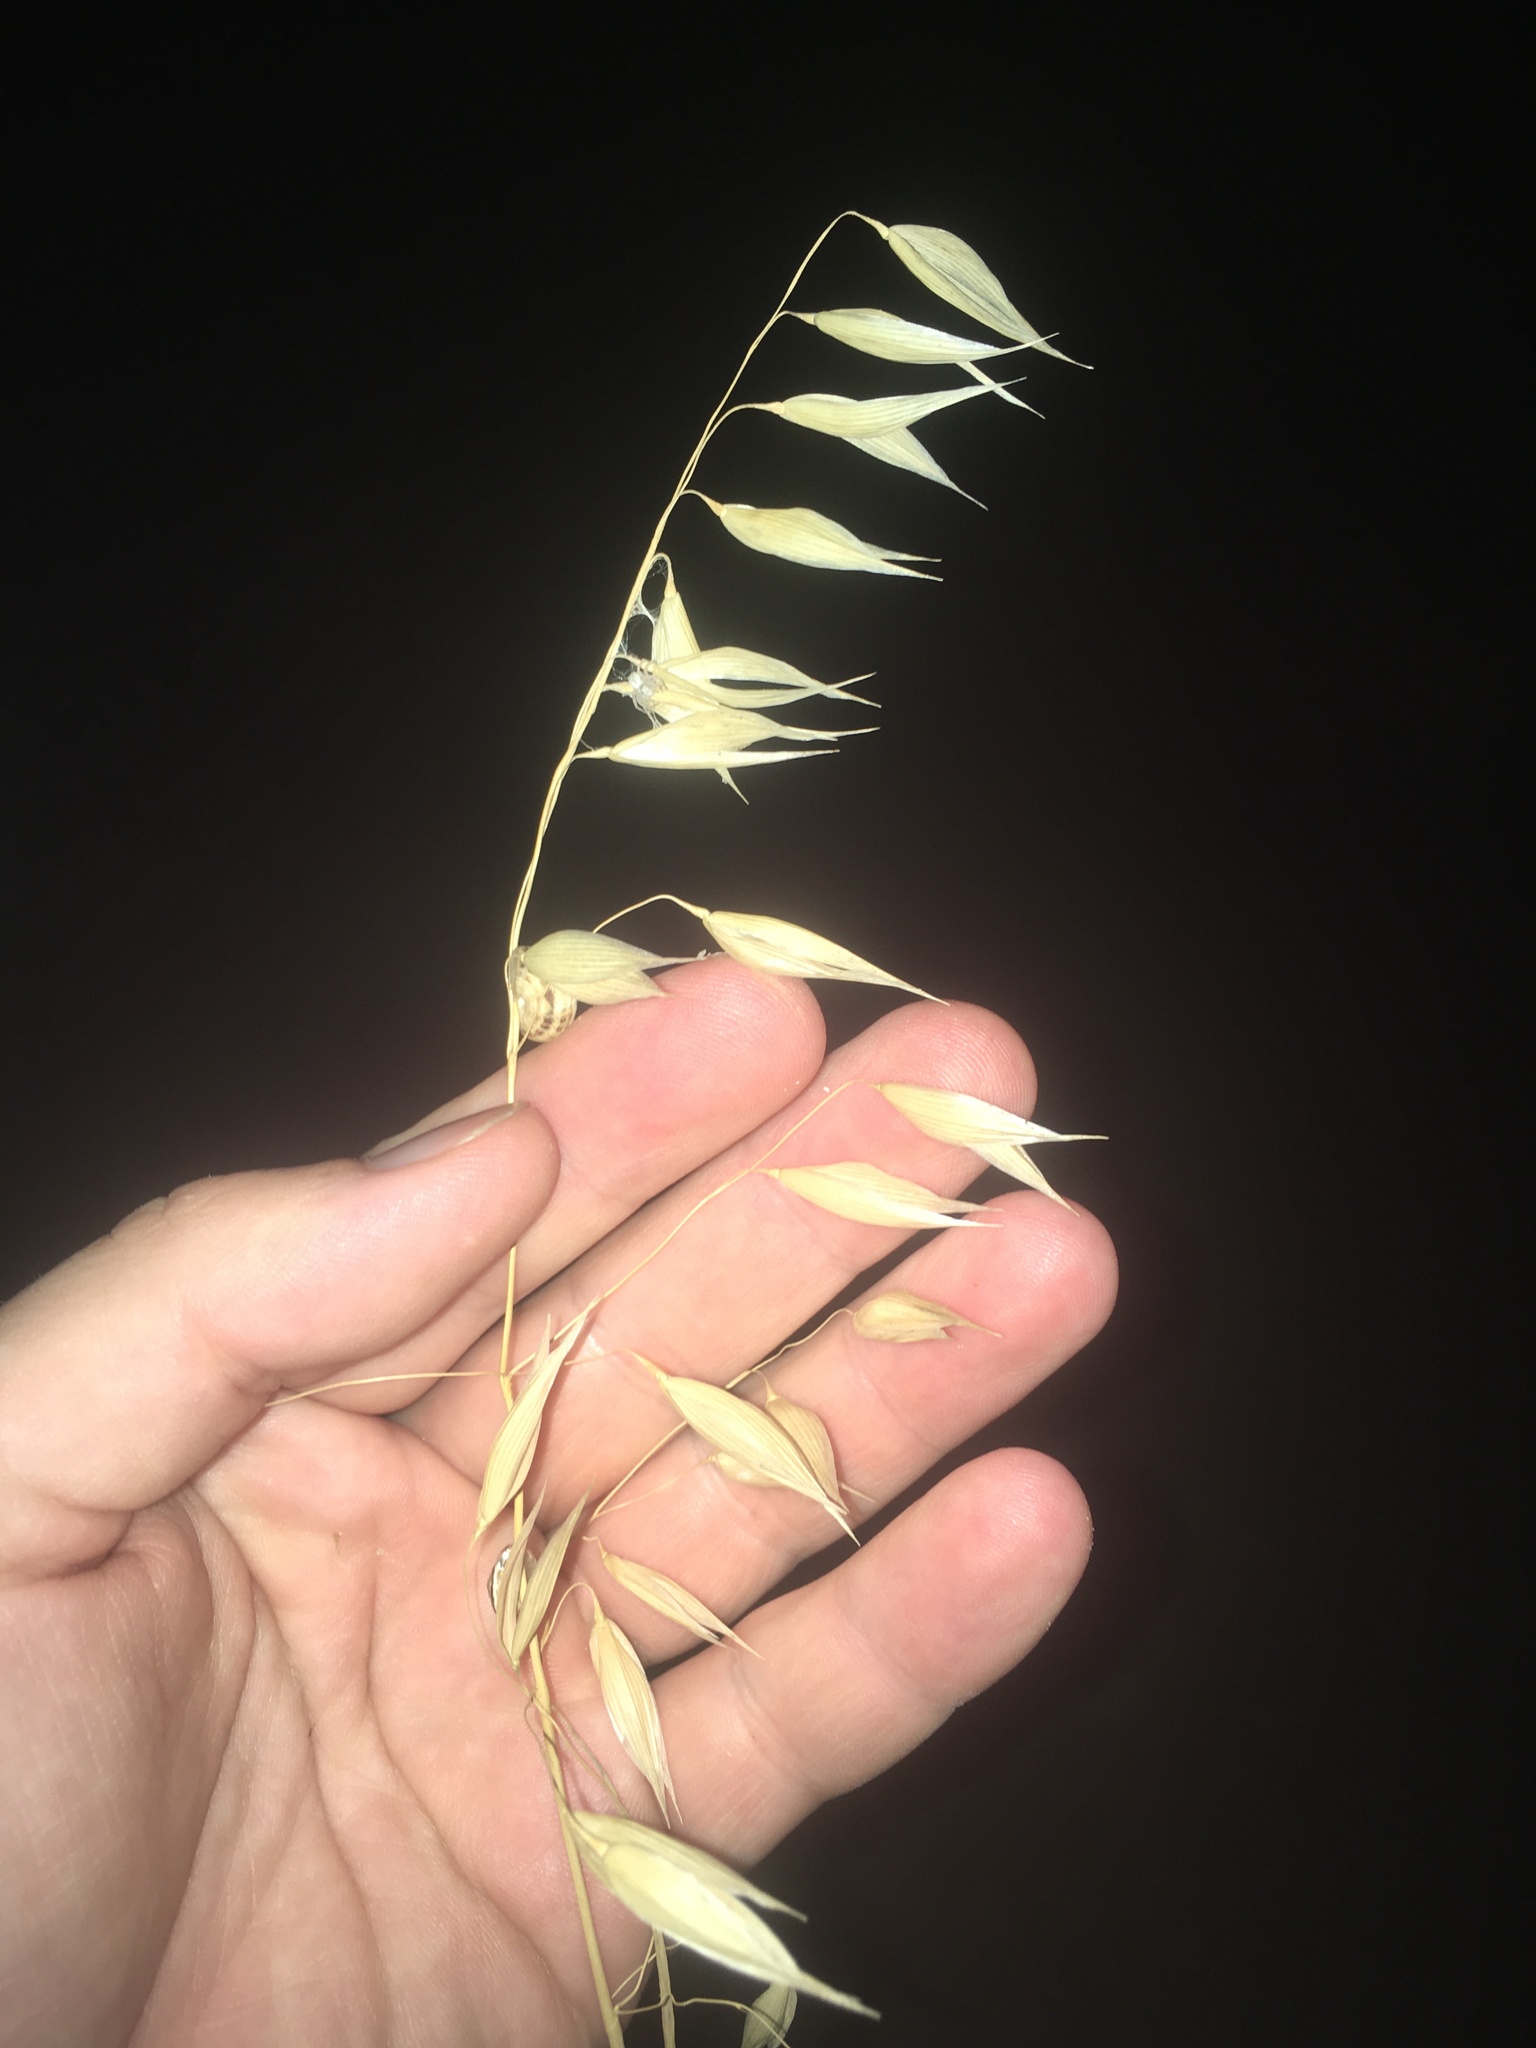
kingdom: Plantae
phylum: Tracheophyta
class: Liliopsida
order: Poales
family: Poaceae
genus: Avena
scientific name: Avena fatua
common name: Wild oat
